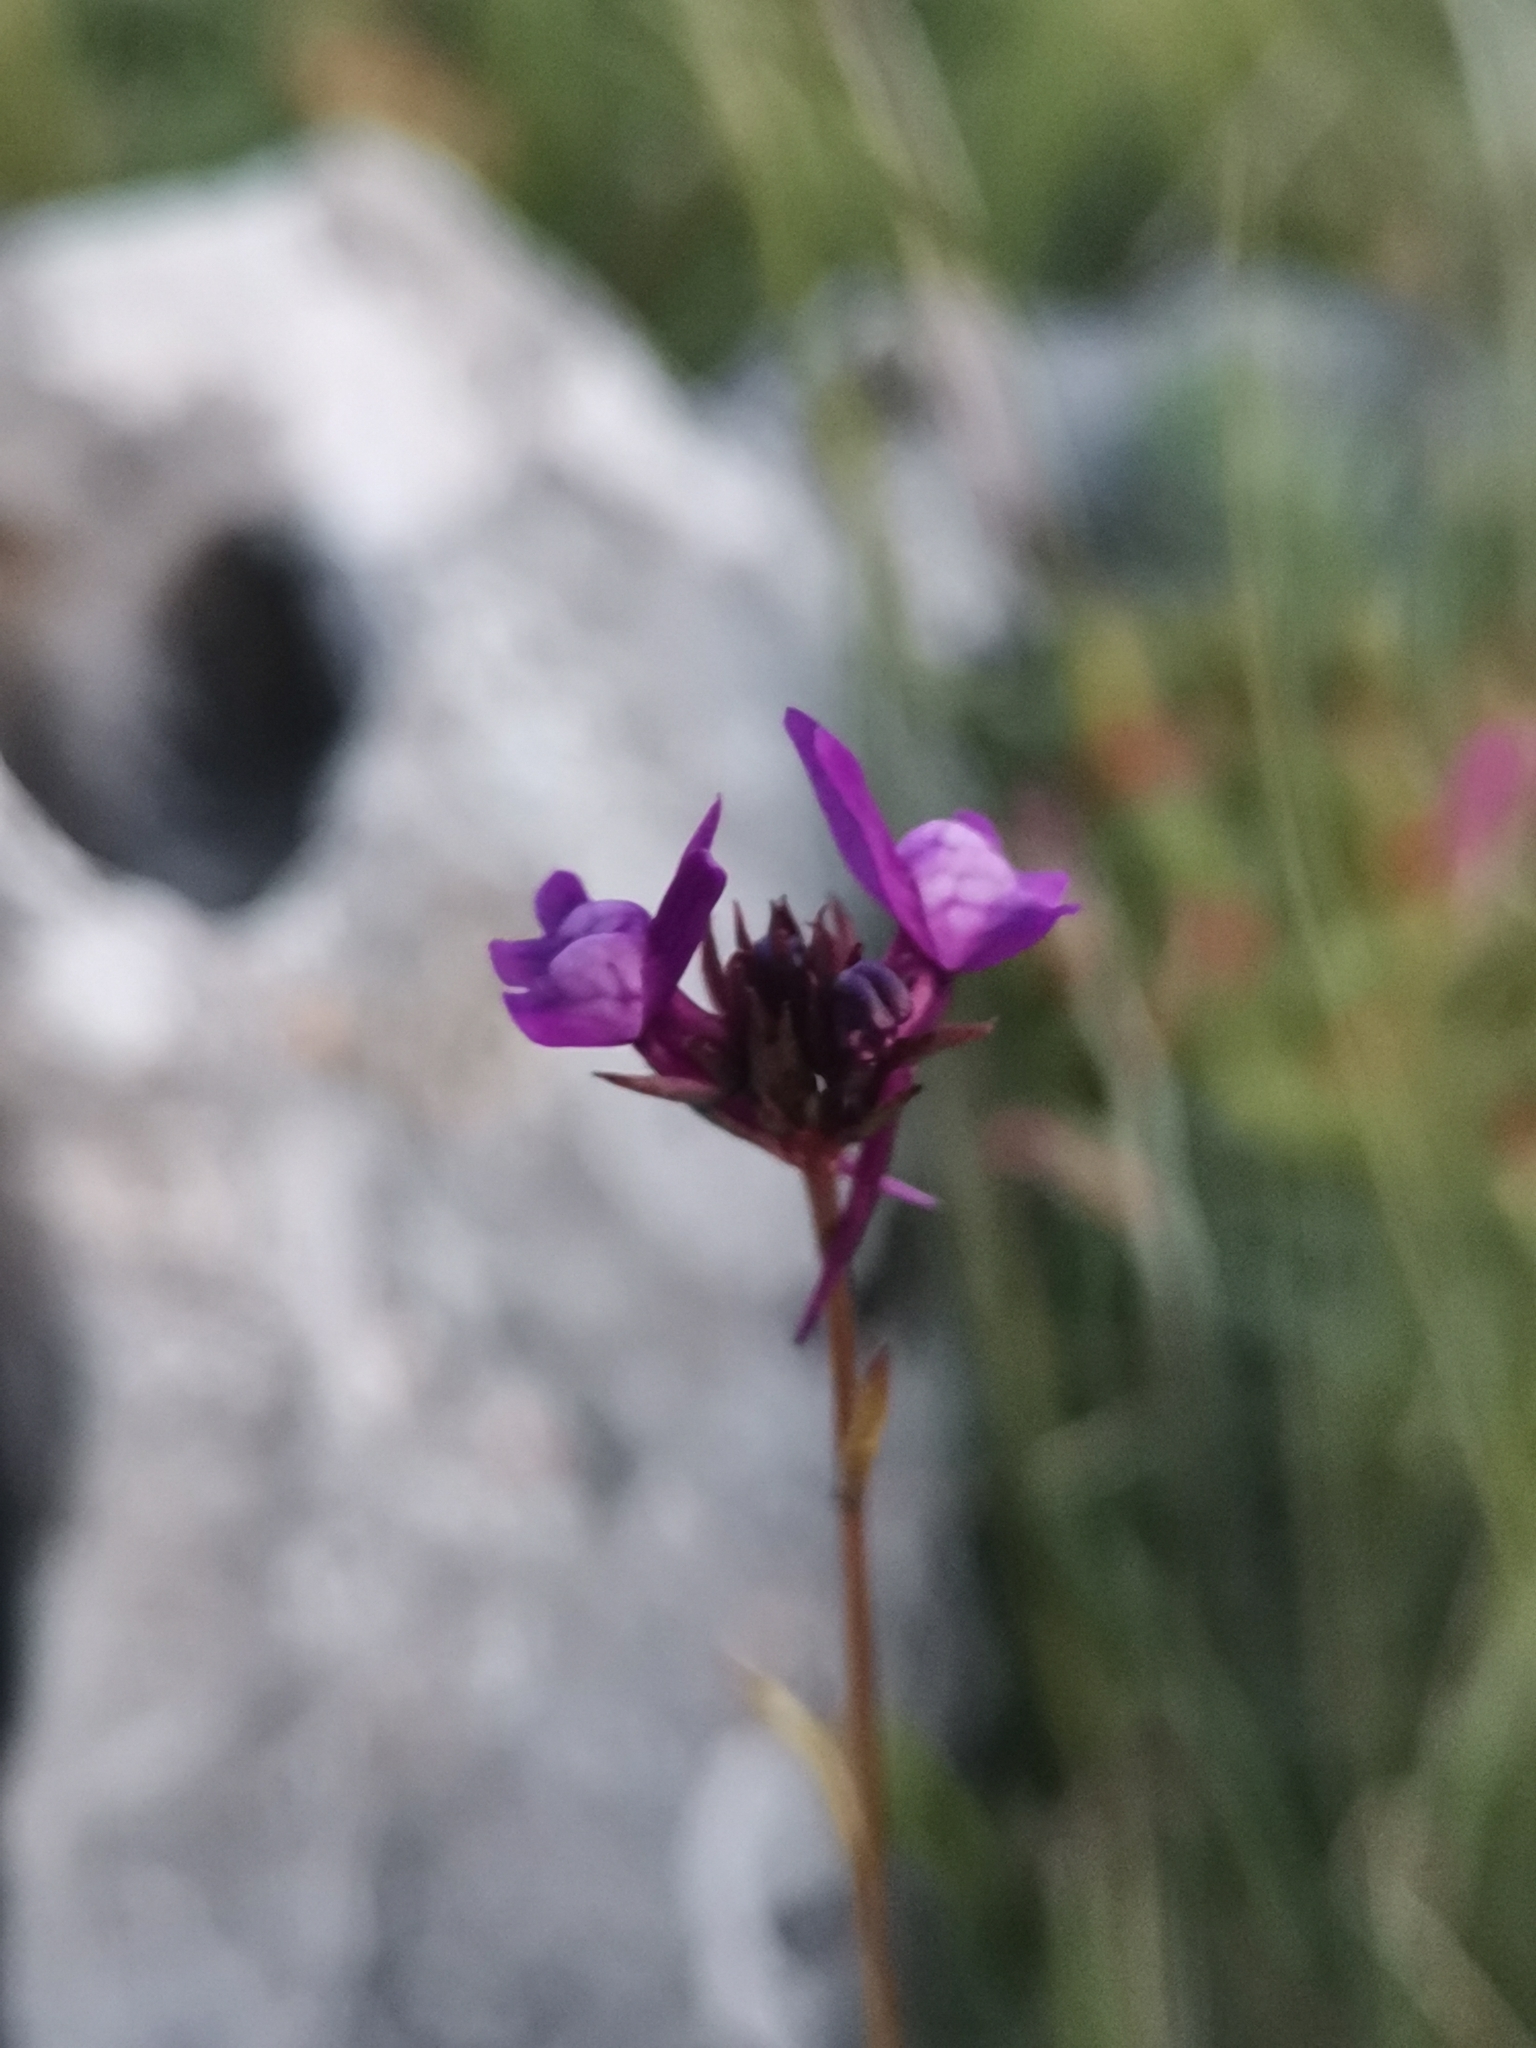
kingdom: Plantae
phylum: Tracheophyta
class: Magnoliopsida
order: Lamiales
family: Plantaginaceae
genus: Linaria
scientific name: Linaria pelisseriana
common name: Jersey toadflax
